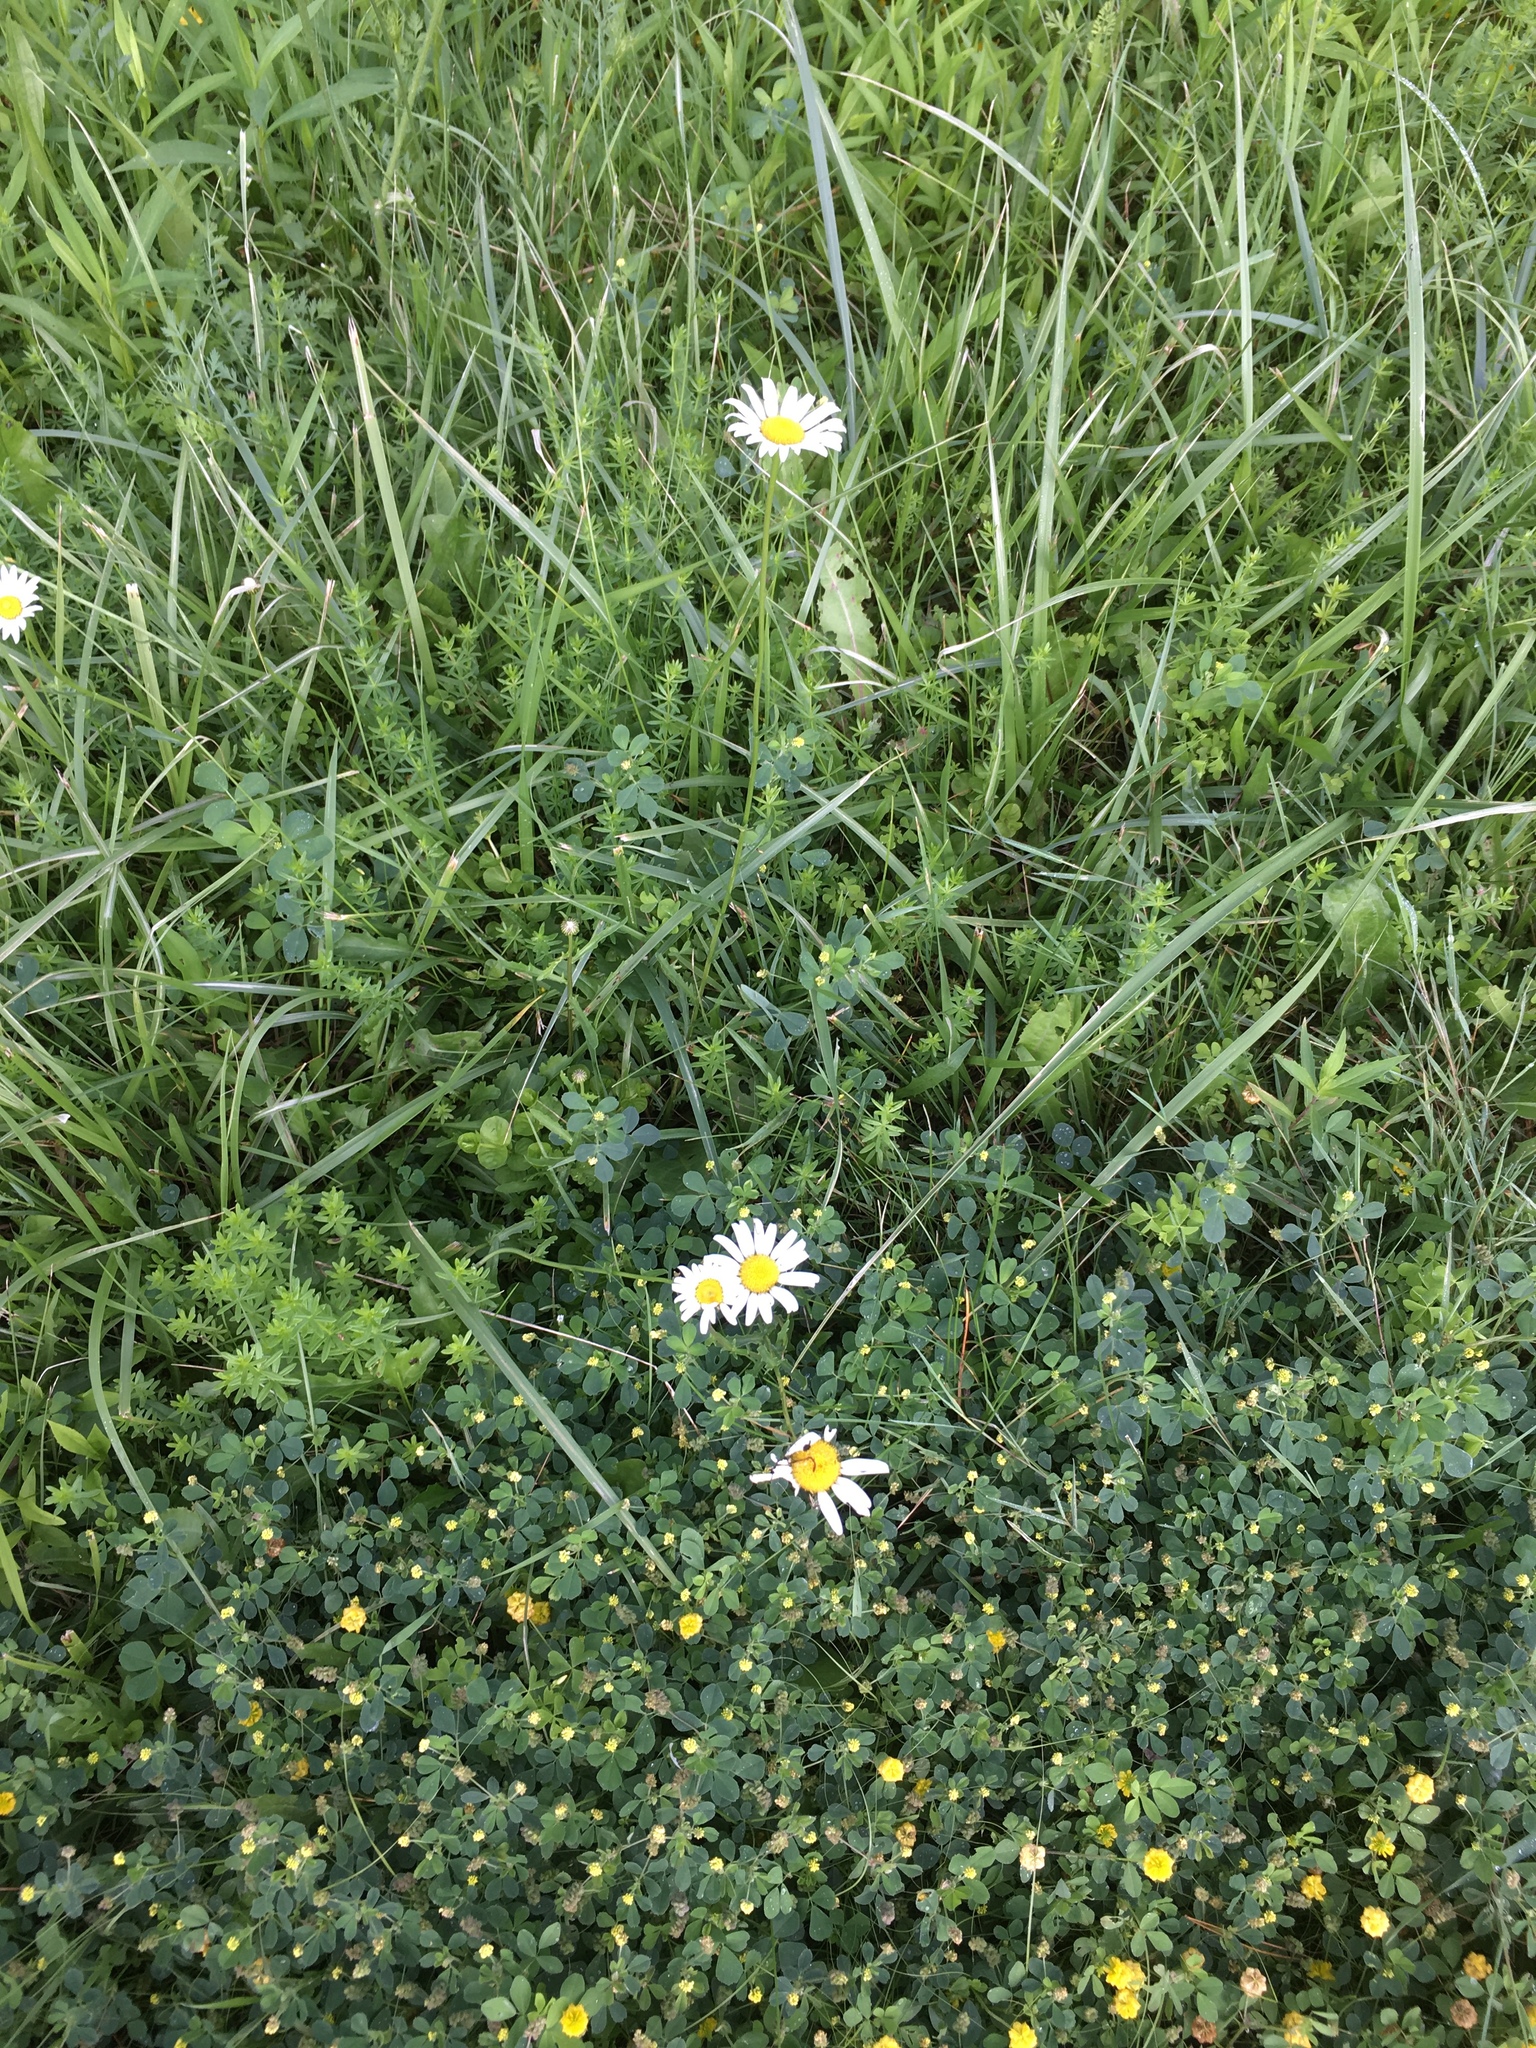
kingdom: Plantae
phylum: Tracheophyta
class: Magnoliopsida
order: Asterales
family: Asteraceae
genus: Leucanthemum
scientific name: Leucanthemum vulgare
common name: Oxeye daisy
